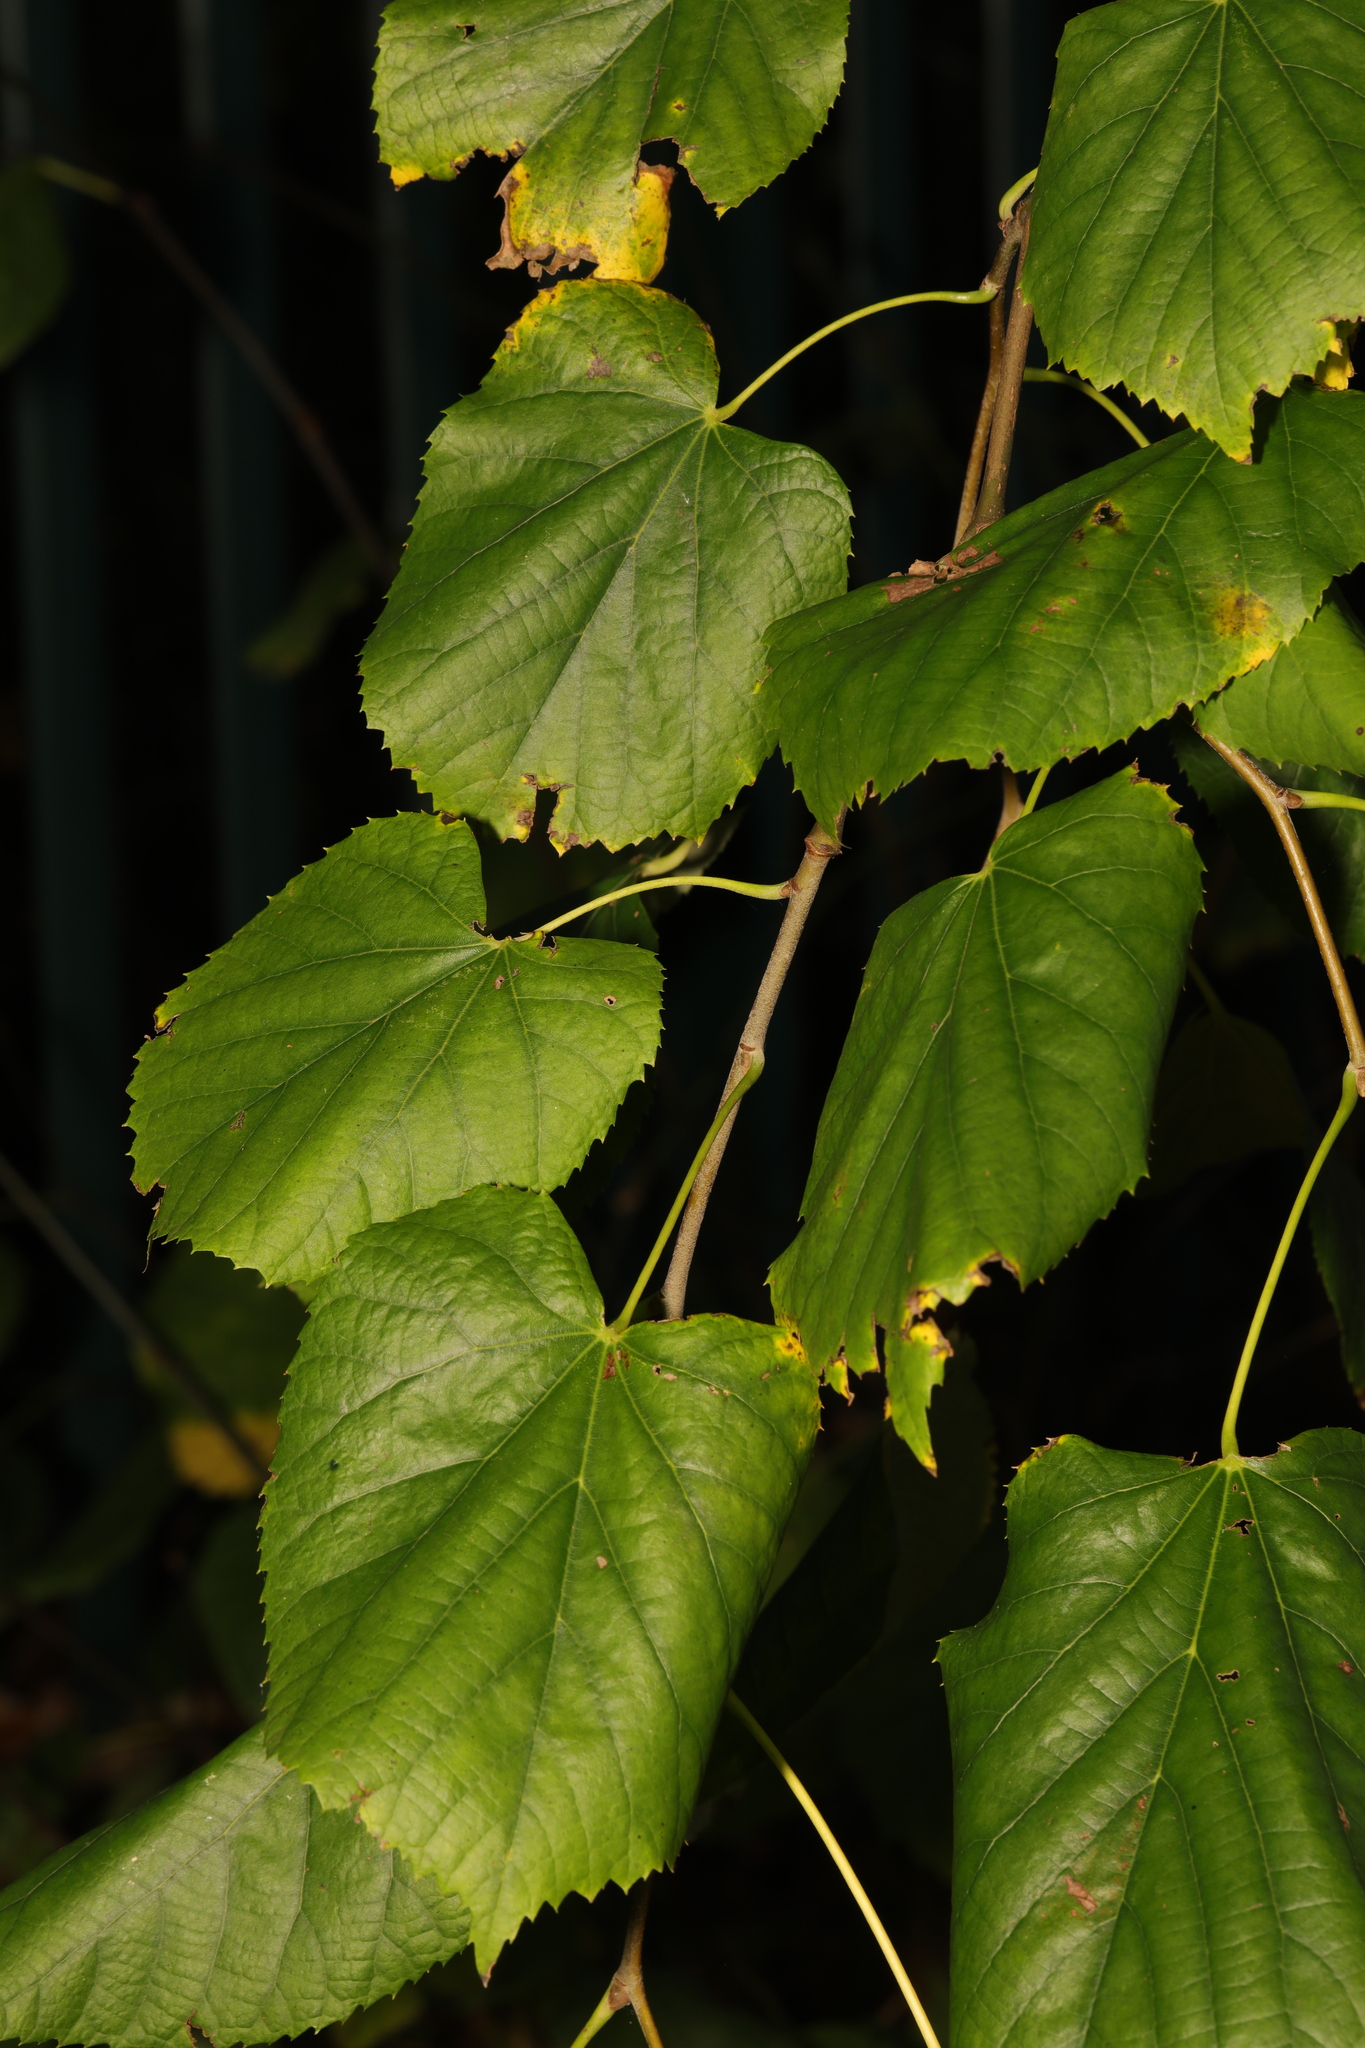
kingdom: Plantae
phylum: Tracheophyta
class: Magnoliopsida
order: Malvales
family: Malvaceae
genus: Tilia
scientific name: Tilia europaea
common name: European linden
